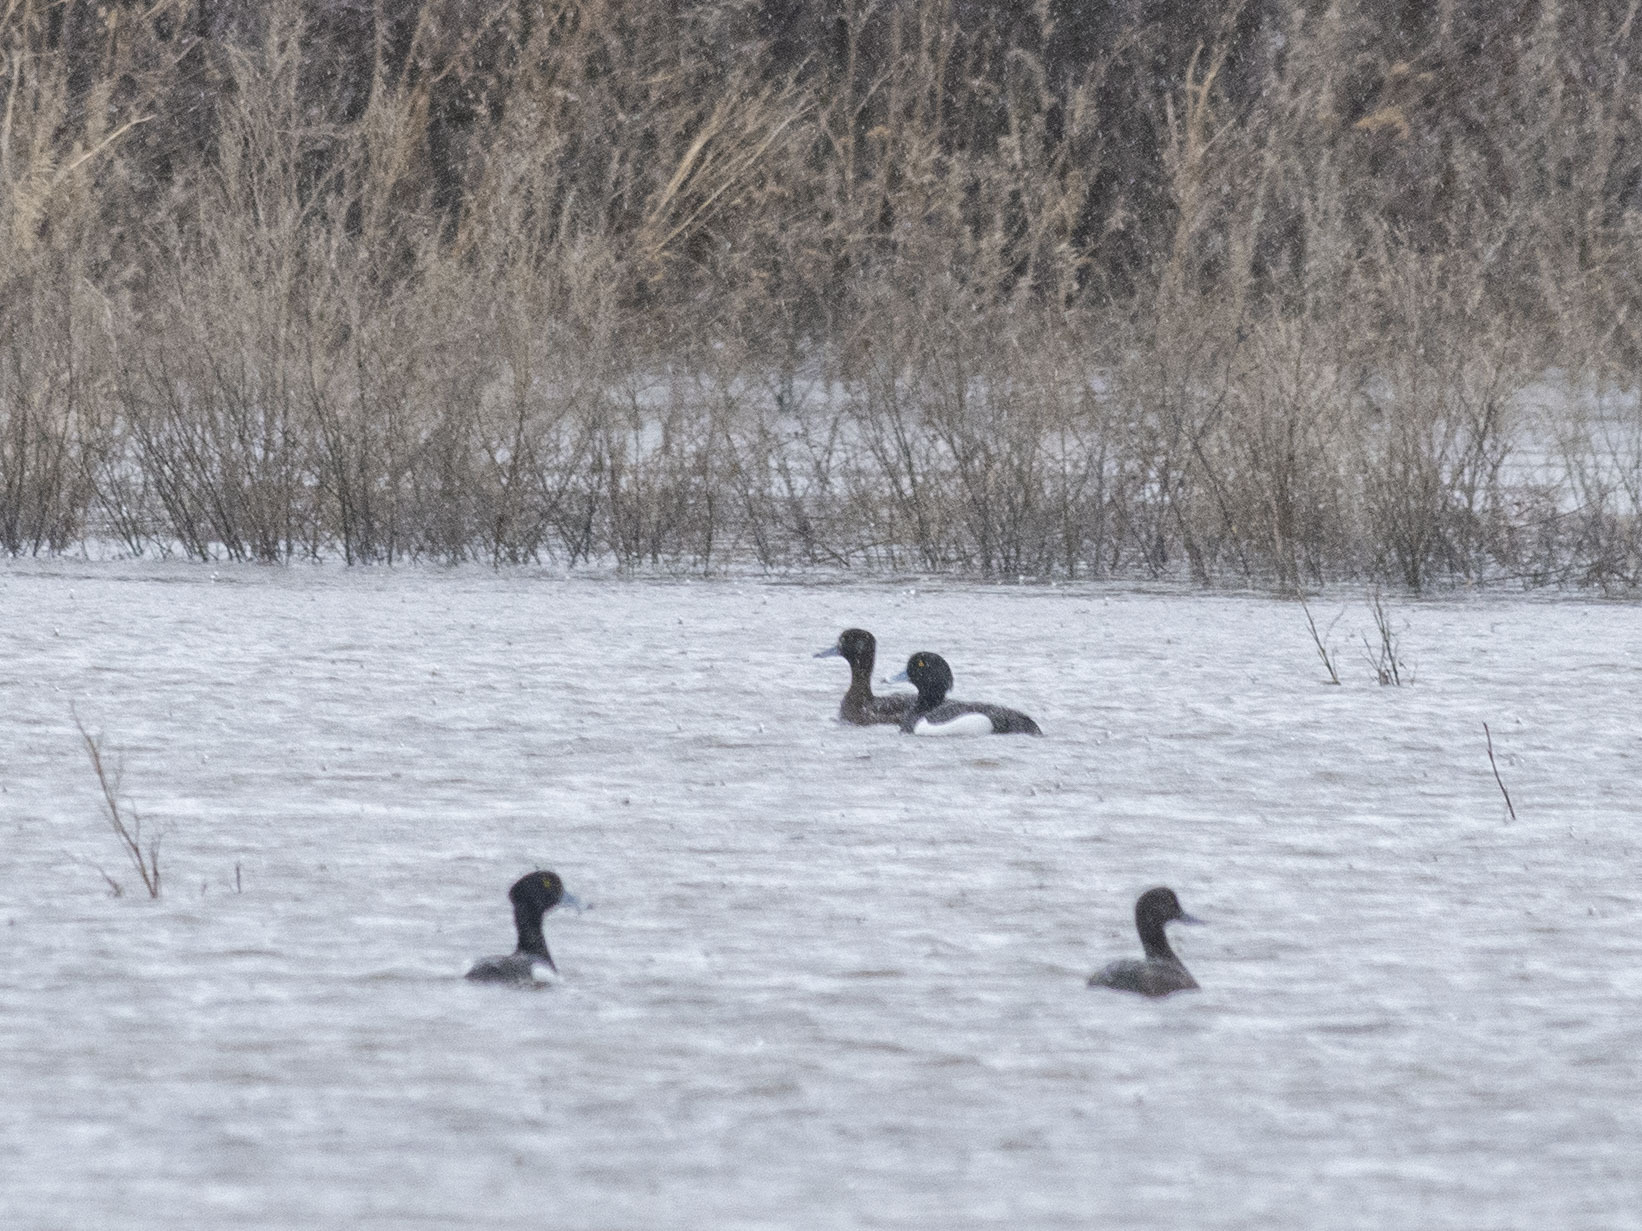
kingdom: Animalia
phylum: Chordata
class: Aves
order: Anseriformes
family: Anatidae
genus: Aythya
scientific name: Aythya fuligula
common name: Tufted duck
